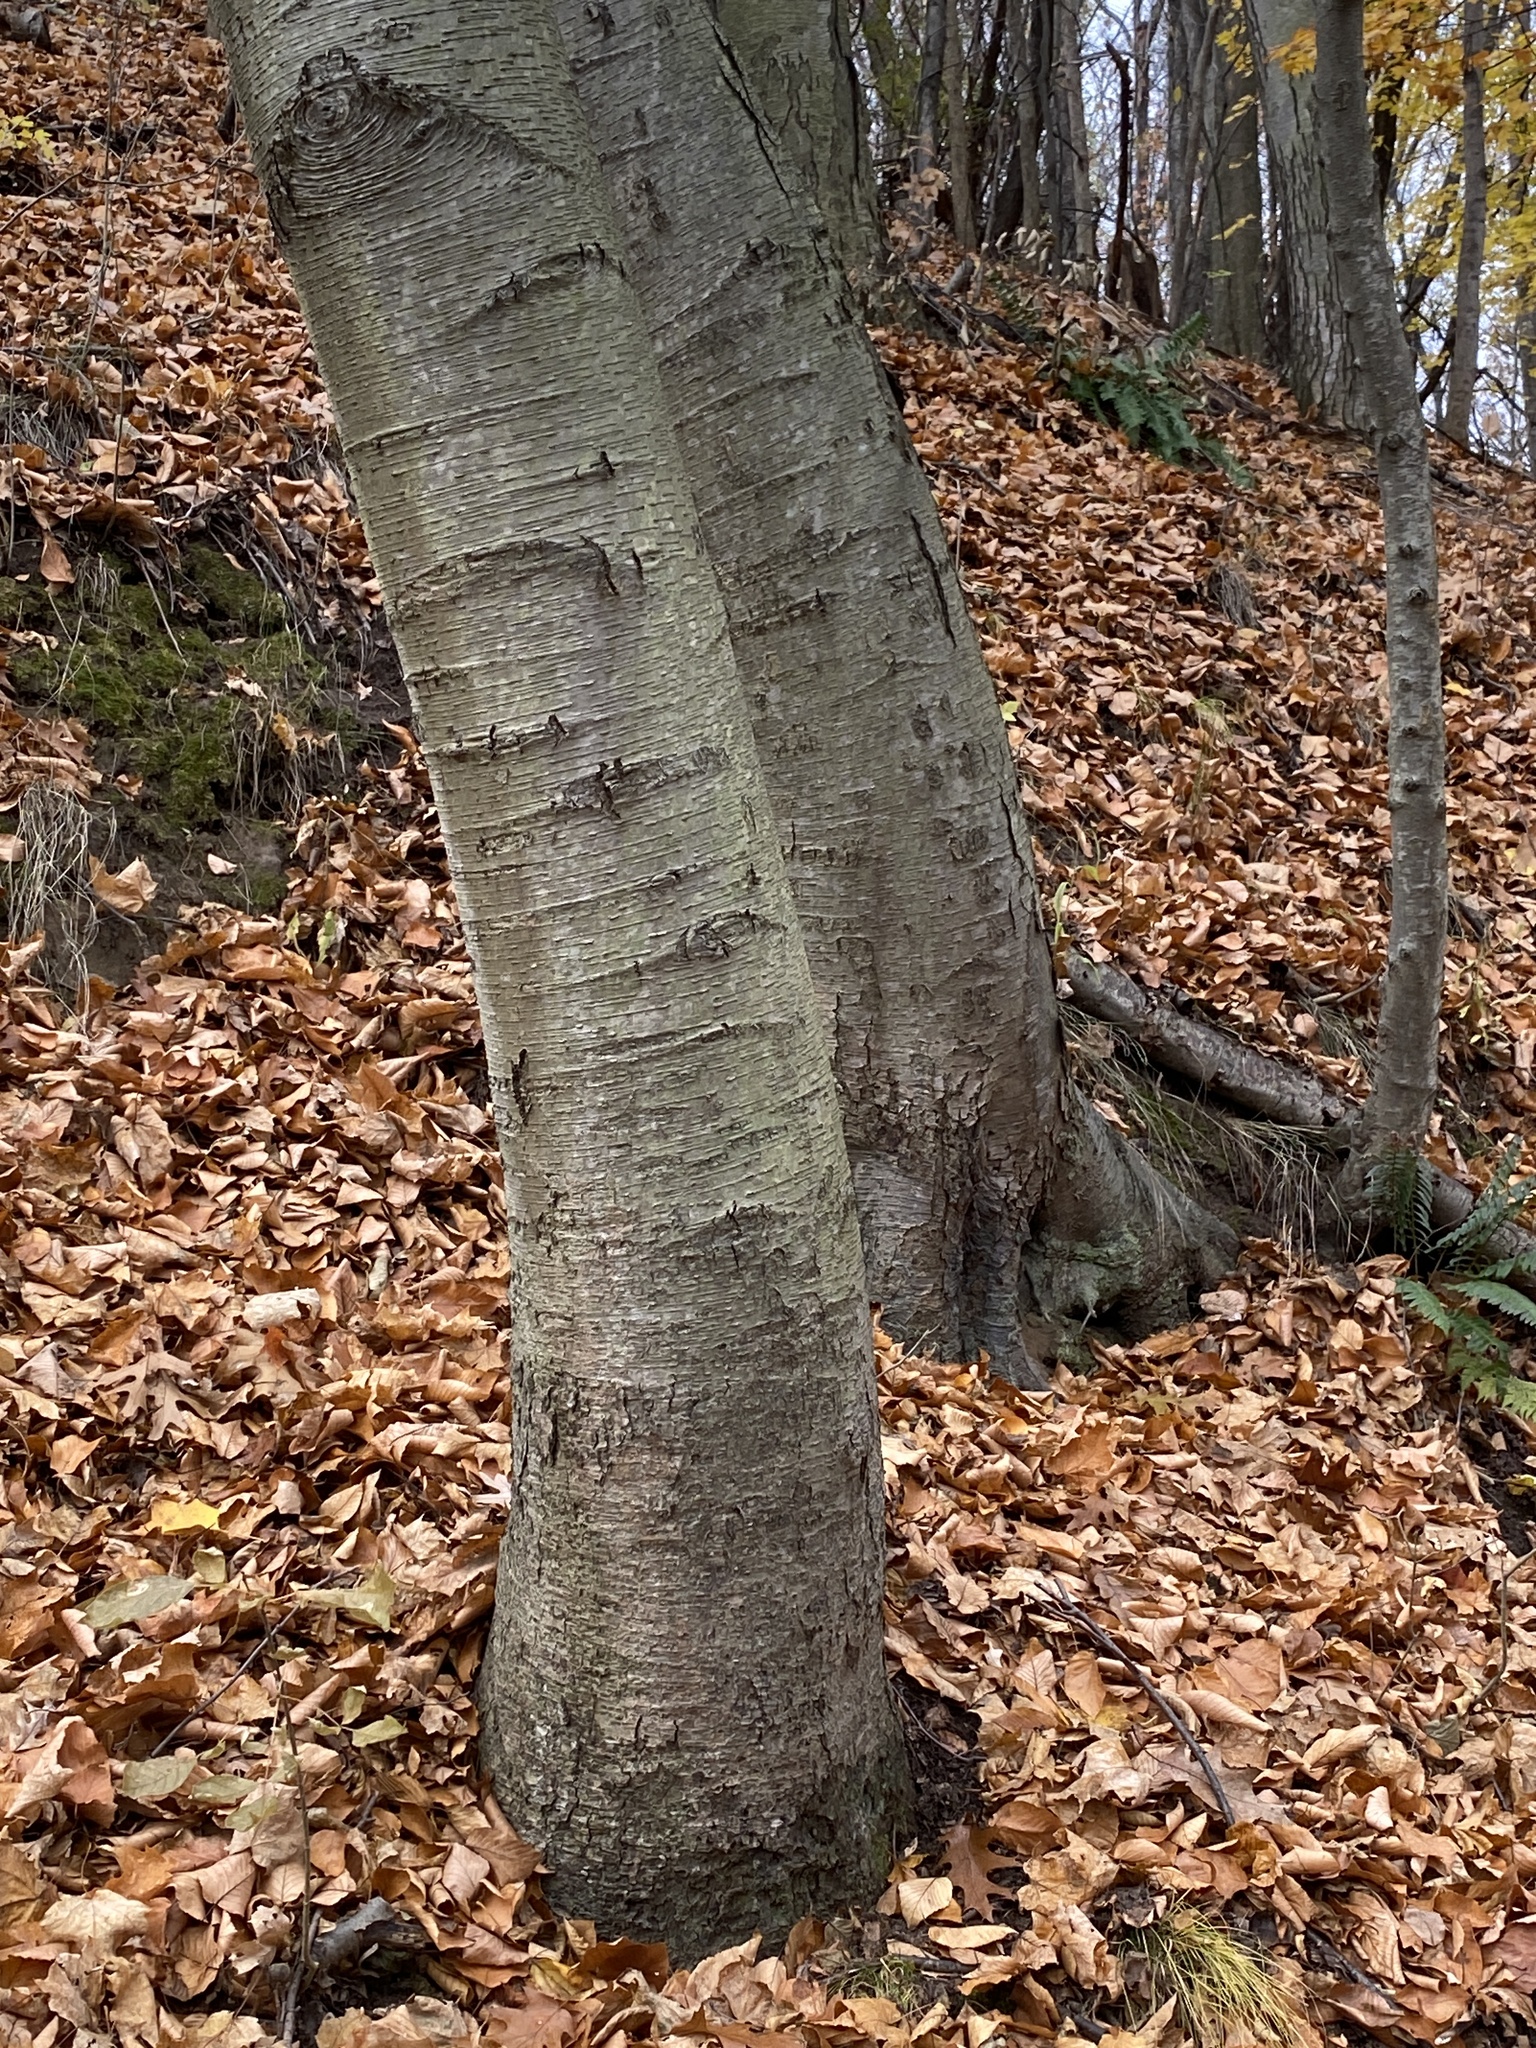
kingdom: Plantae
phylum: Tracheophyta
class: Magnoliopsida
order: Fagales
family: Betulaceae
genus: Betula
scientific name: Betula lenta
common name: Black birch
